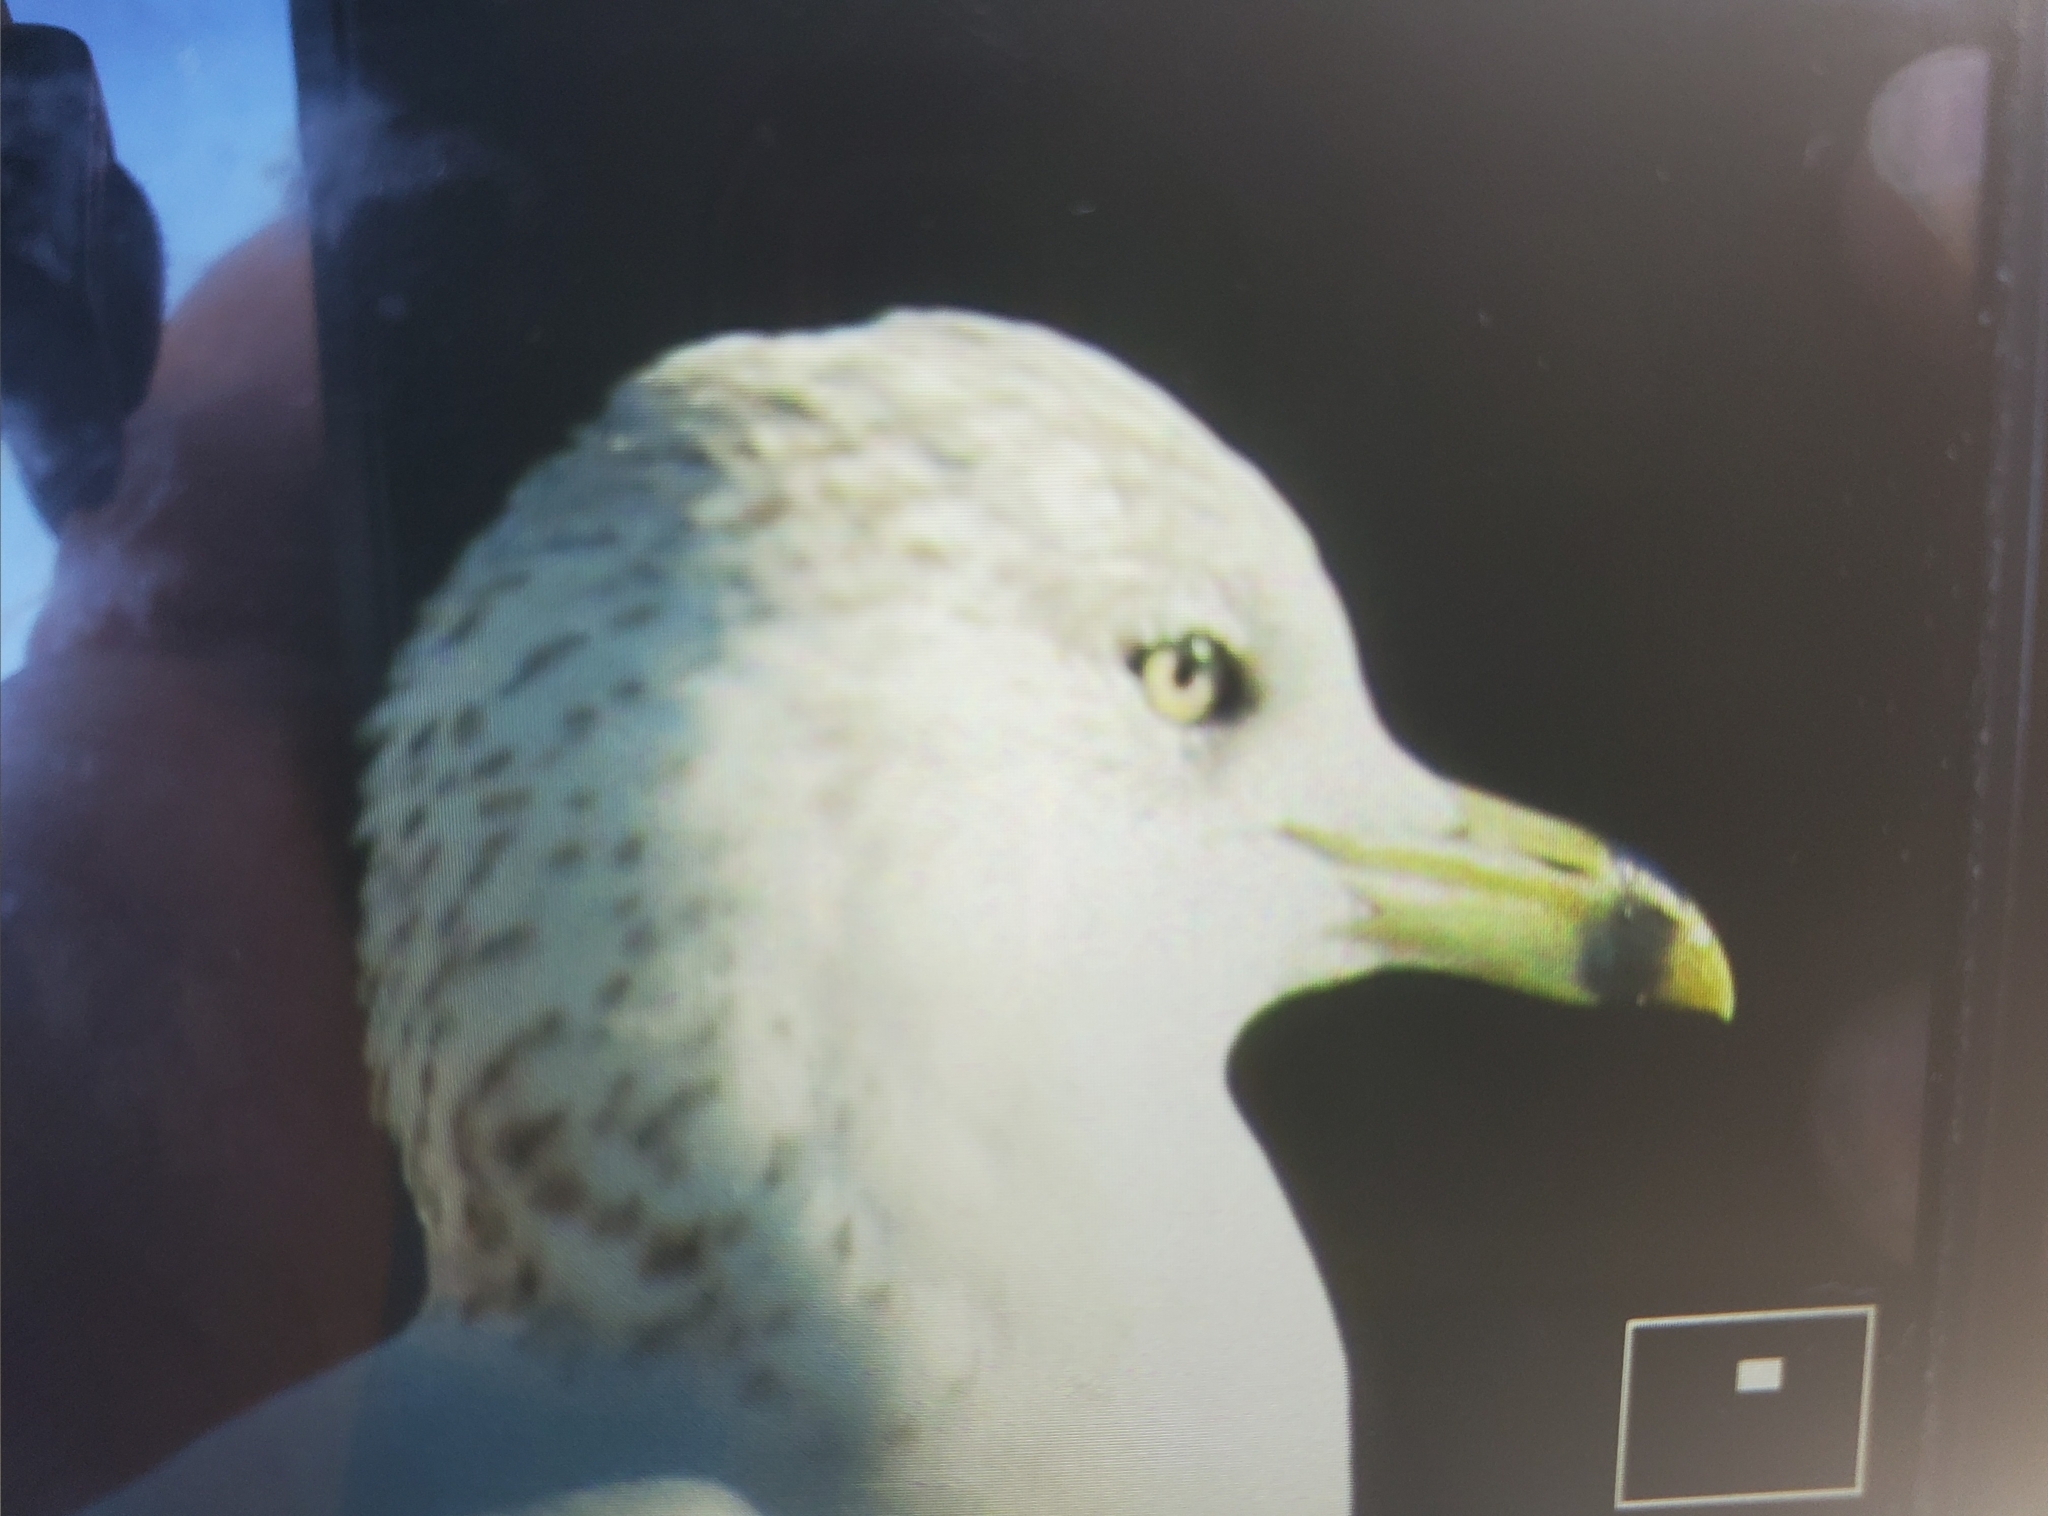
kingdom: Animalia
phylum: Chordata
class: Aves
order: Charadriiformes
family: Laridae
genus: Larus
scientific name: Larus delawarensis
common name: Ring-billed gull
